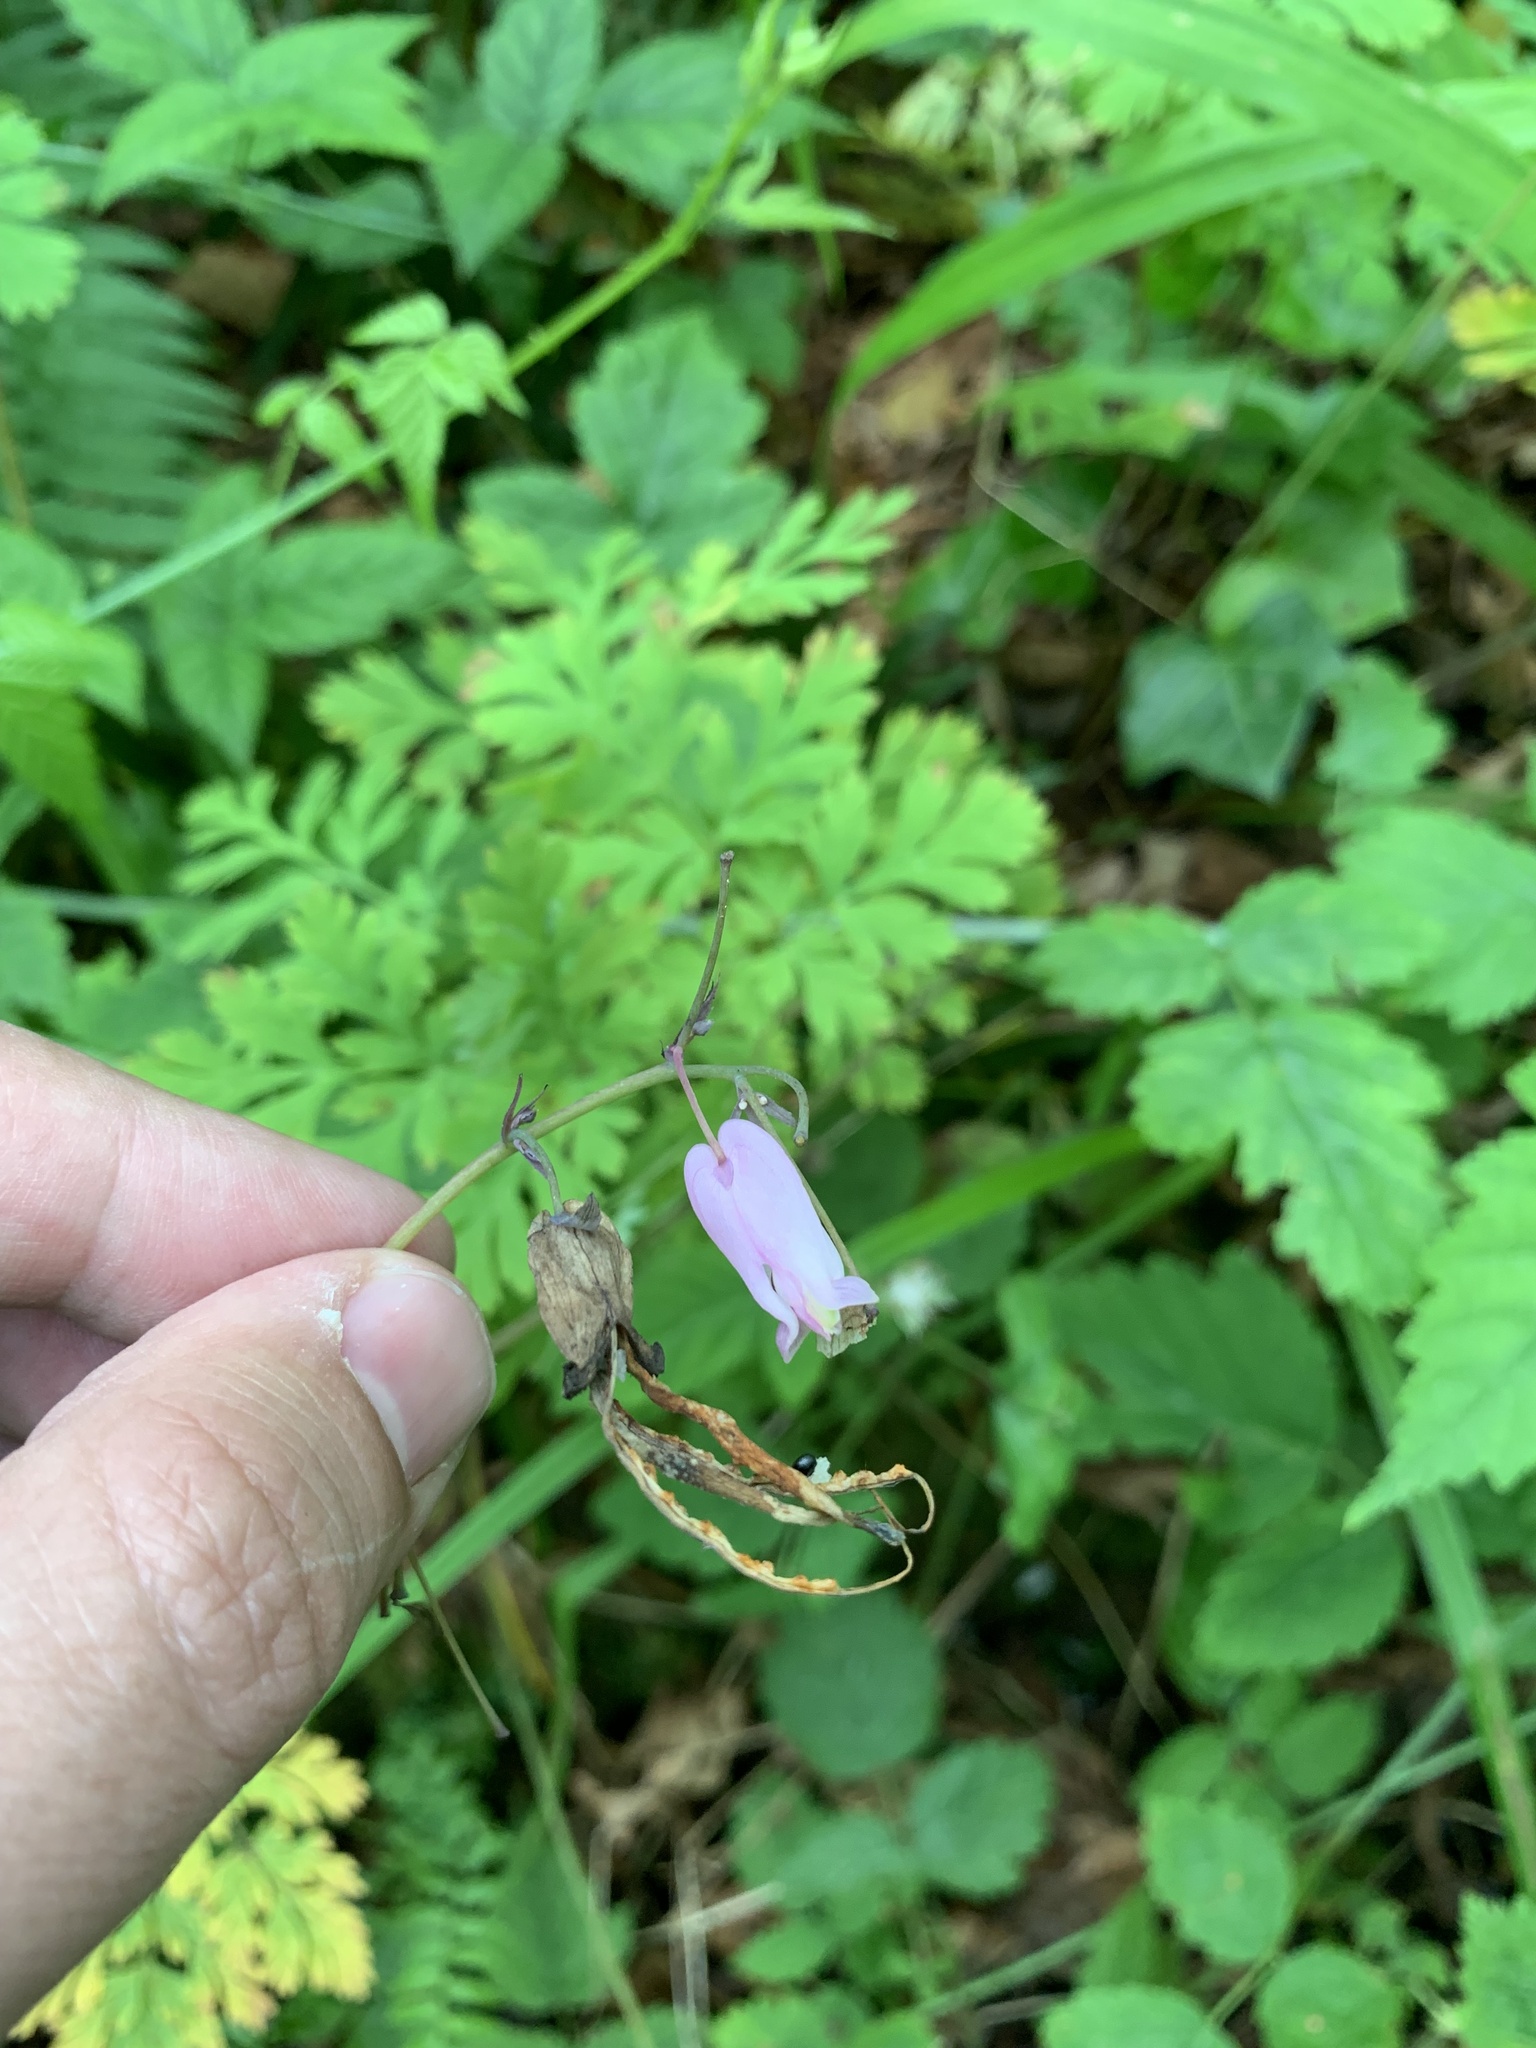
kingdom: Plantae
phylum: Tracheophyta
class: Magnoliopsida
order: Ranunculales
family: Papaveraceae
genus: Dicentra
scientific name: Dicentra formosa
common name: Bleeding-heart
